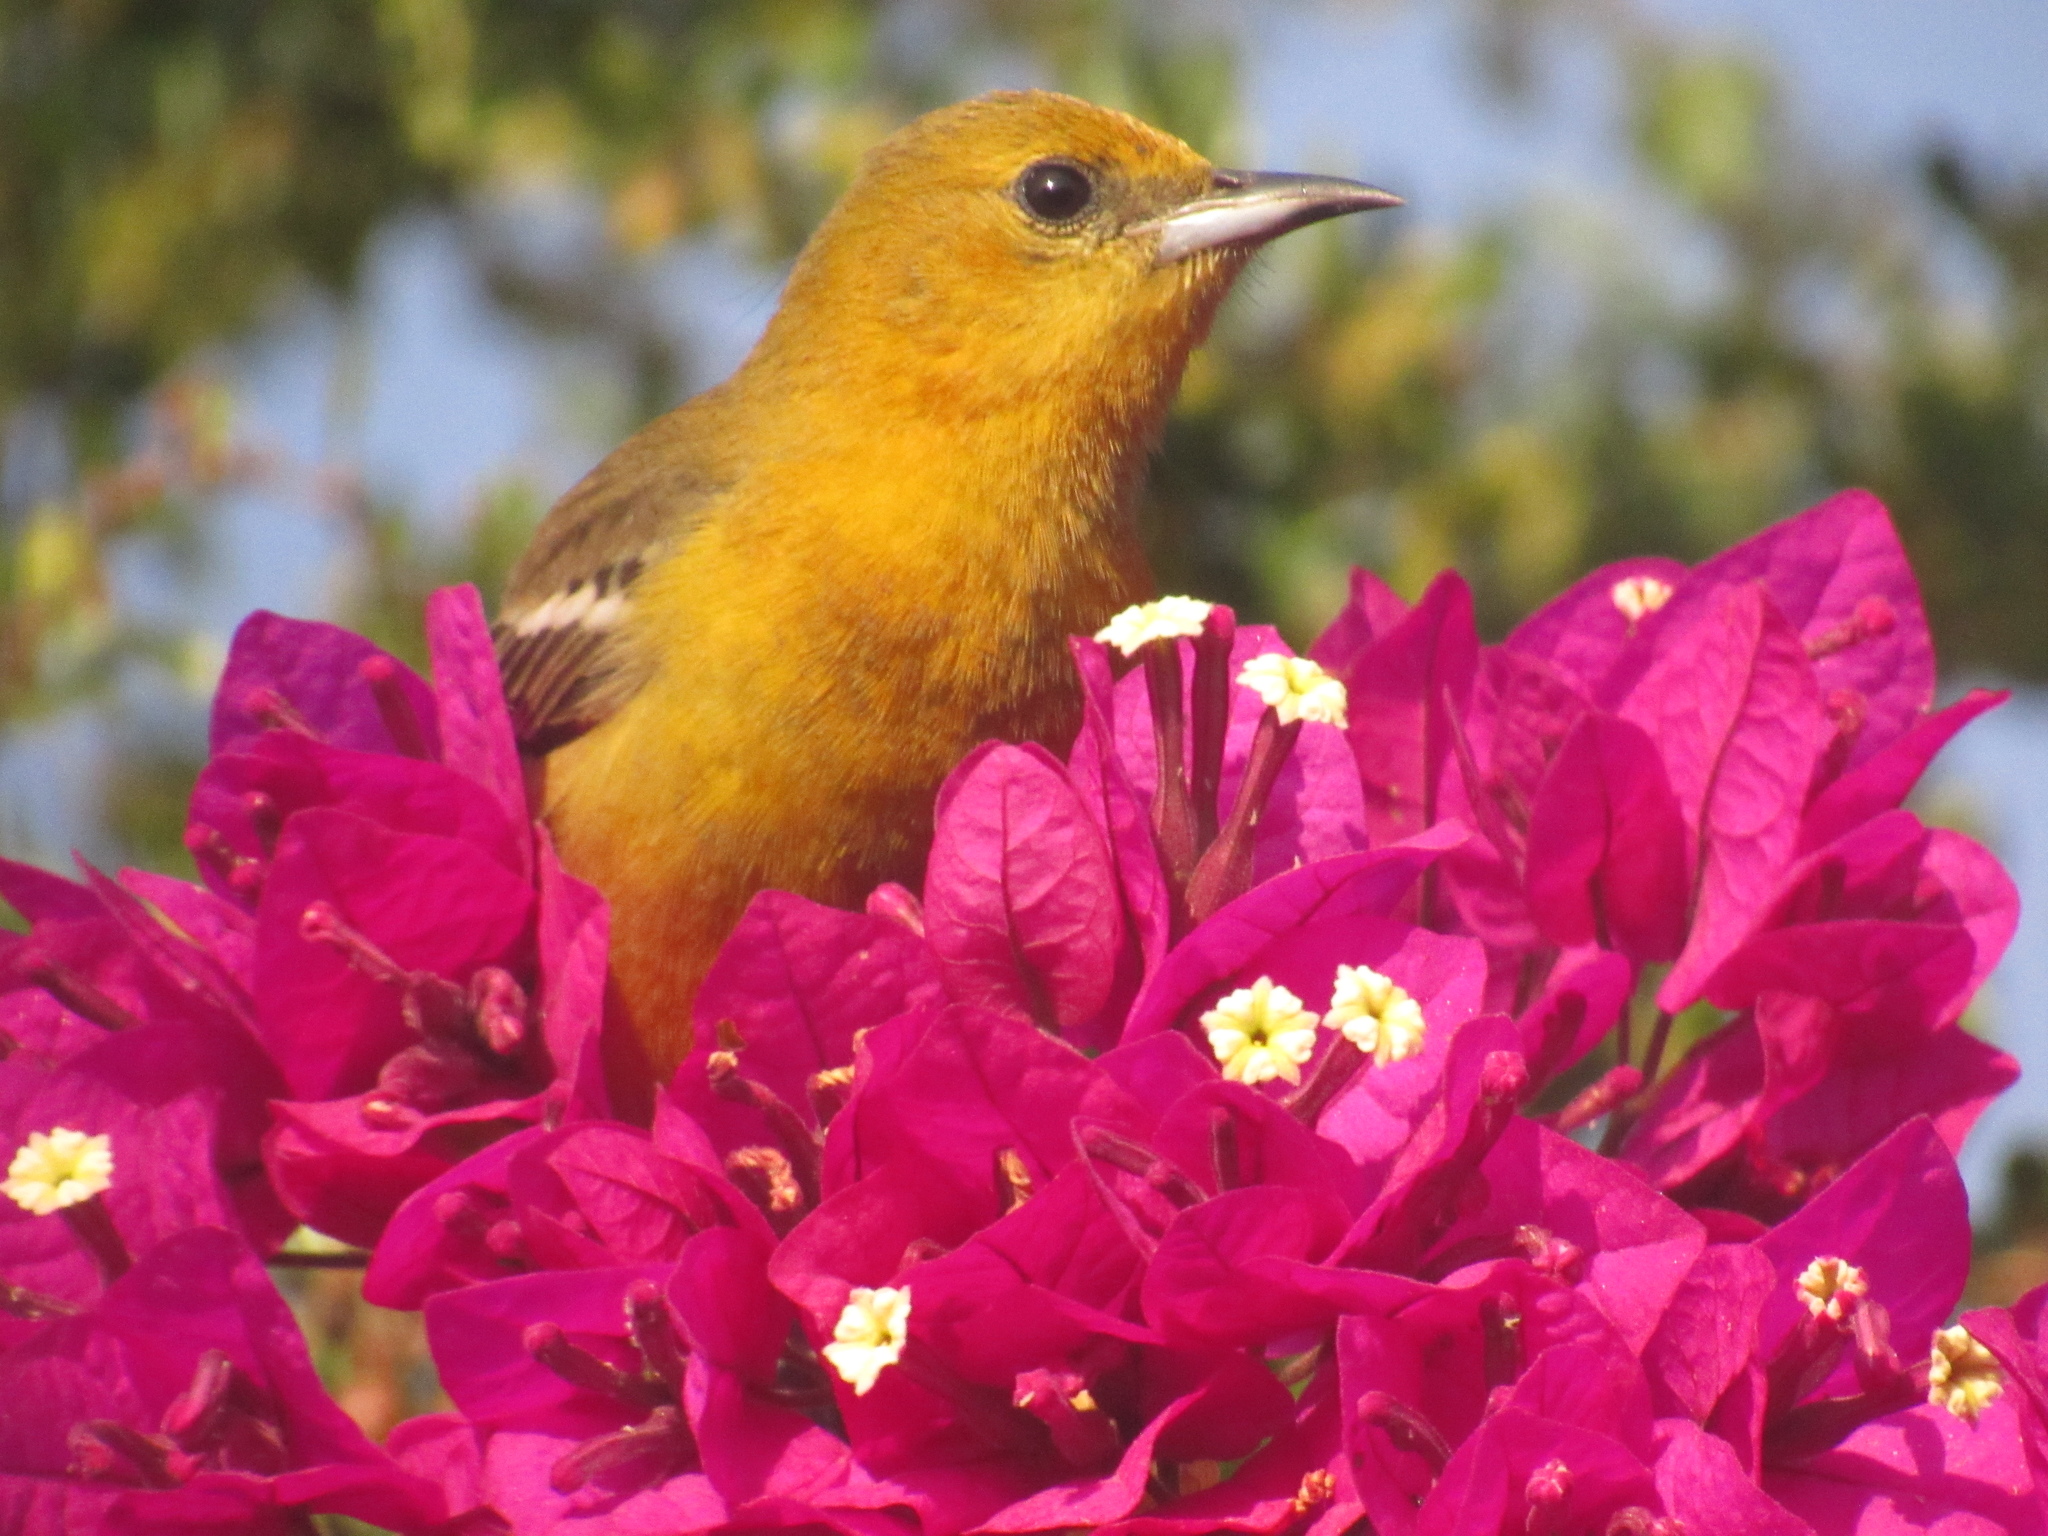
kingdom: Animalia
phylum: Chordata
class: Aves
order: Passeriformes
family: Icteridae
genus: Icterus
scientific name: Icterus cucullatus
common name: Hooded oriole
